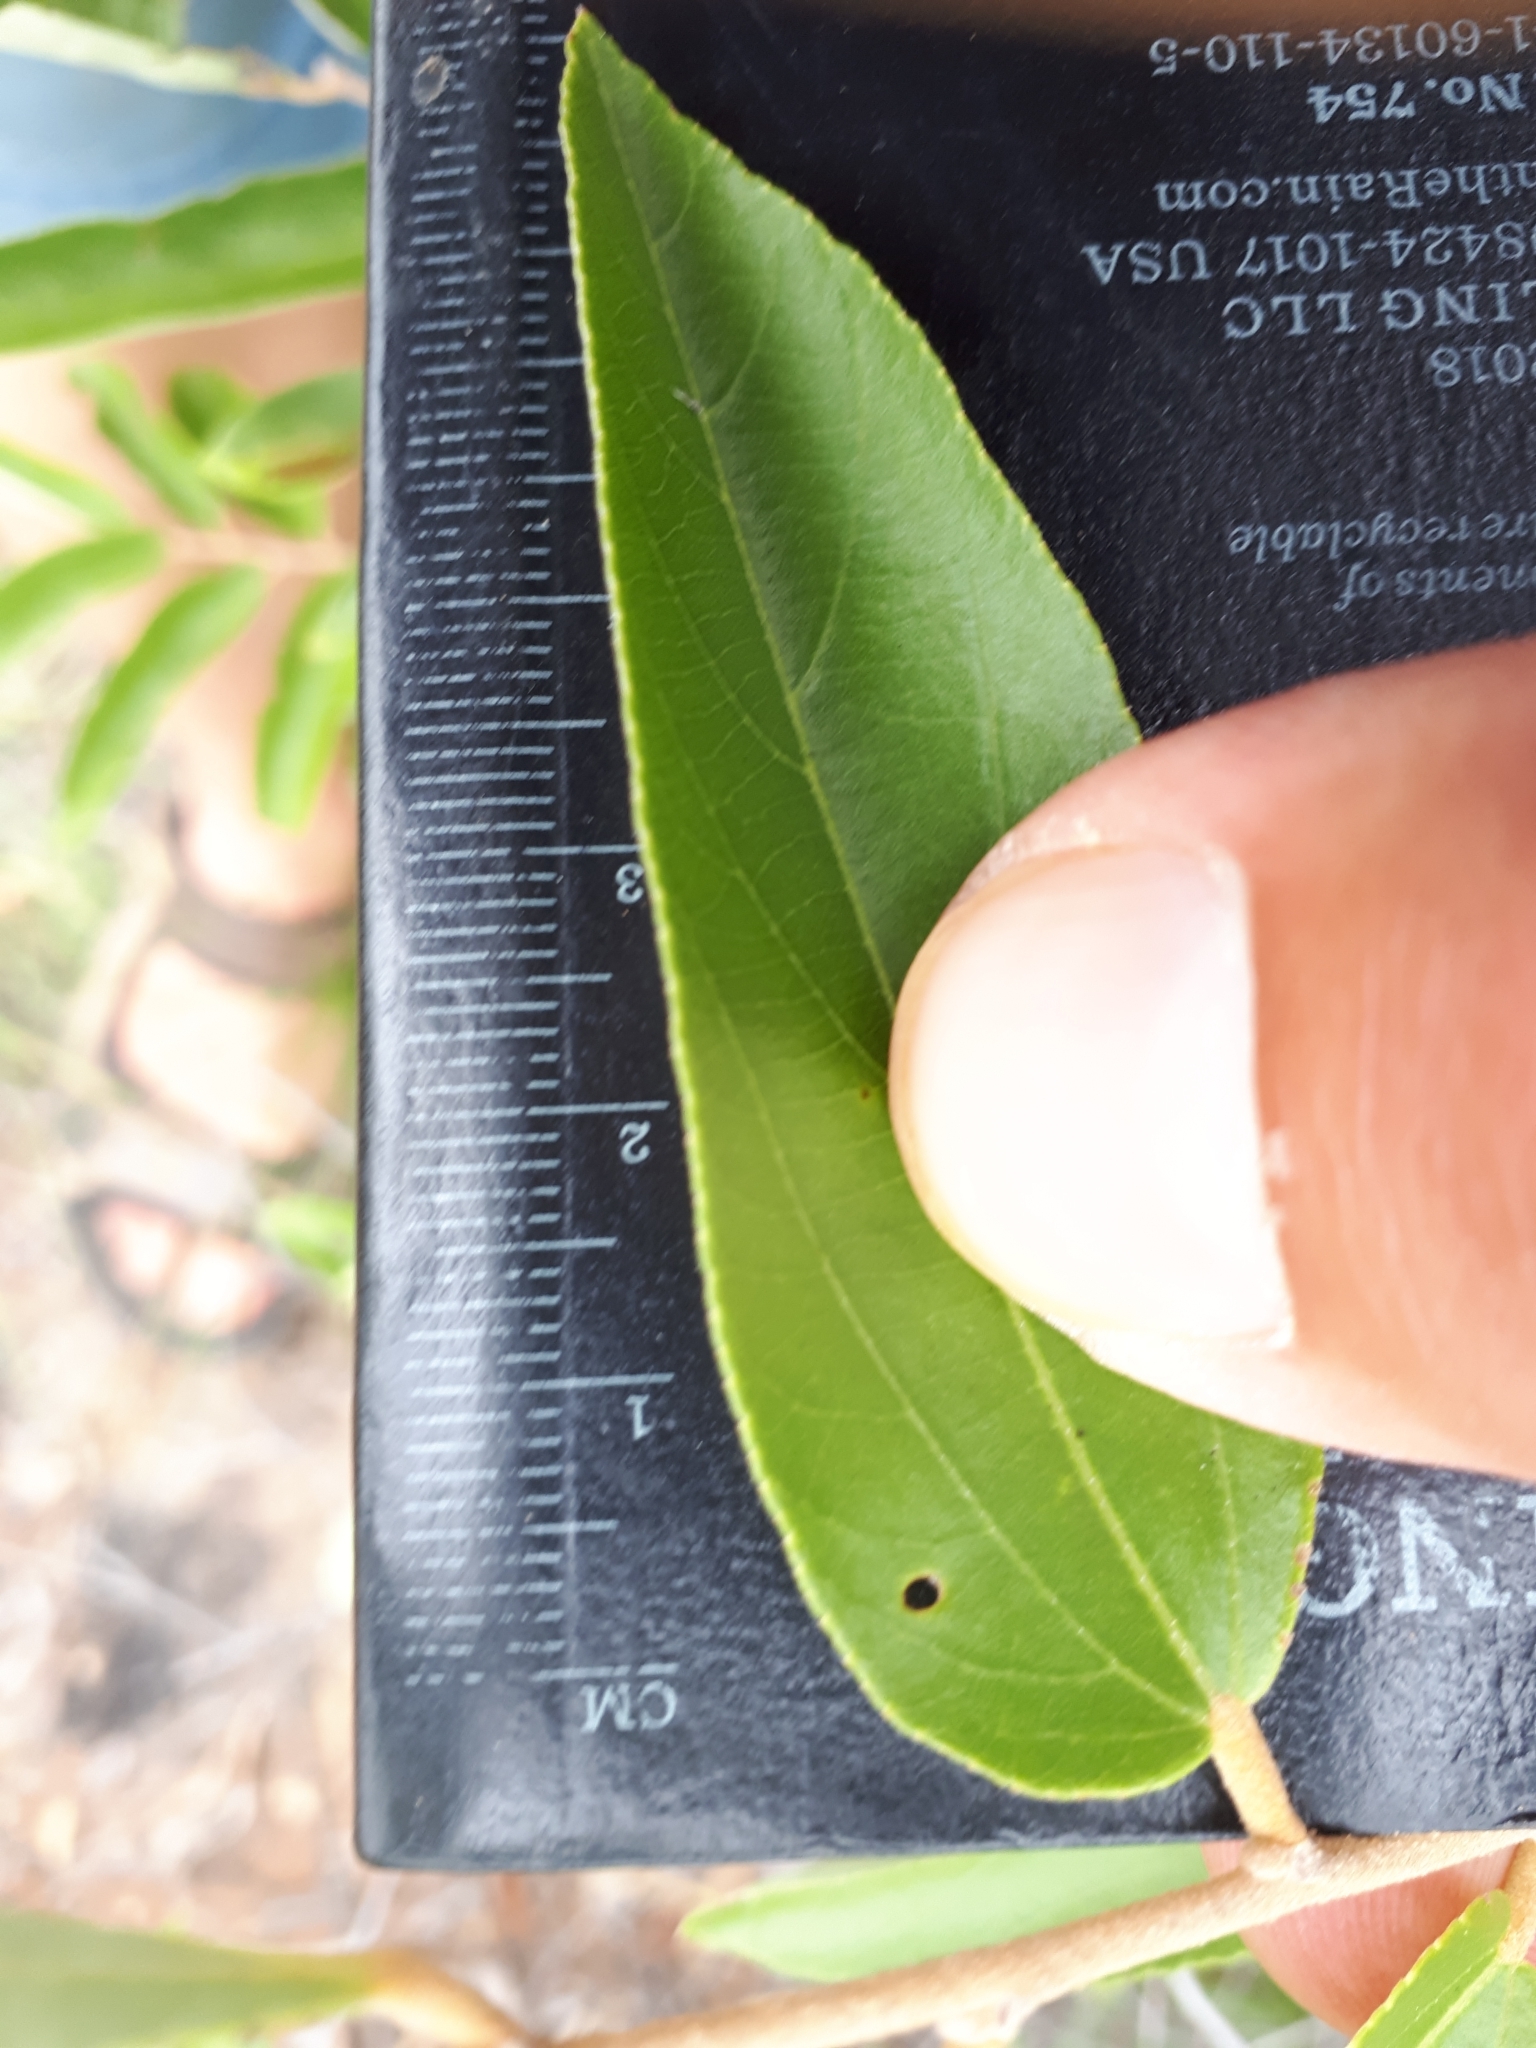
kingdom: Plantae
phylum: Tracheophyta
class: Magnoliopsida
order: Malvales
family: Malvaceae
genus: Grewia
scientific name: Grewia bicolor
